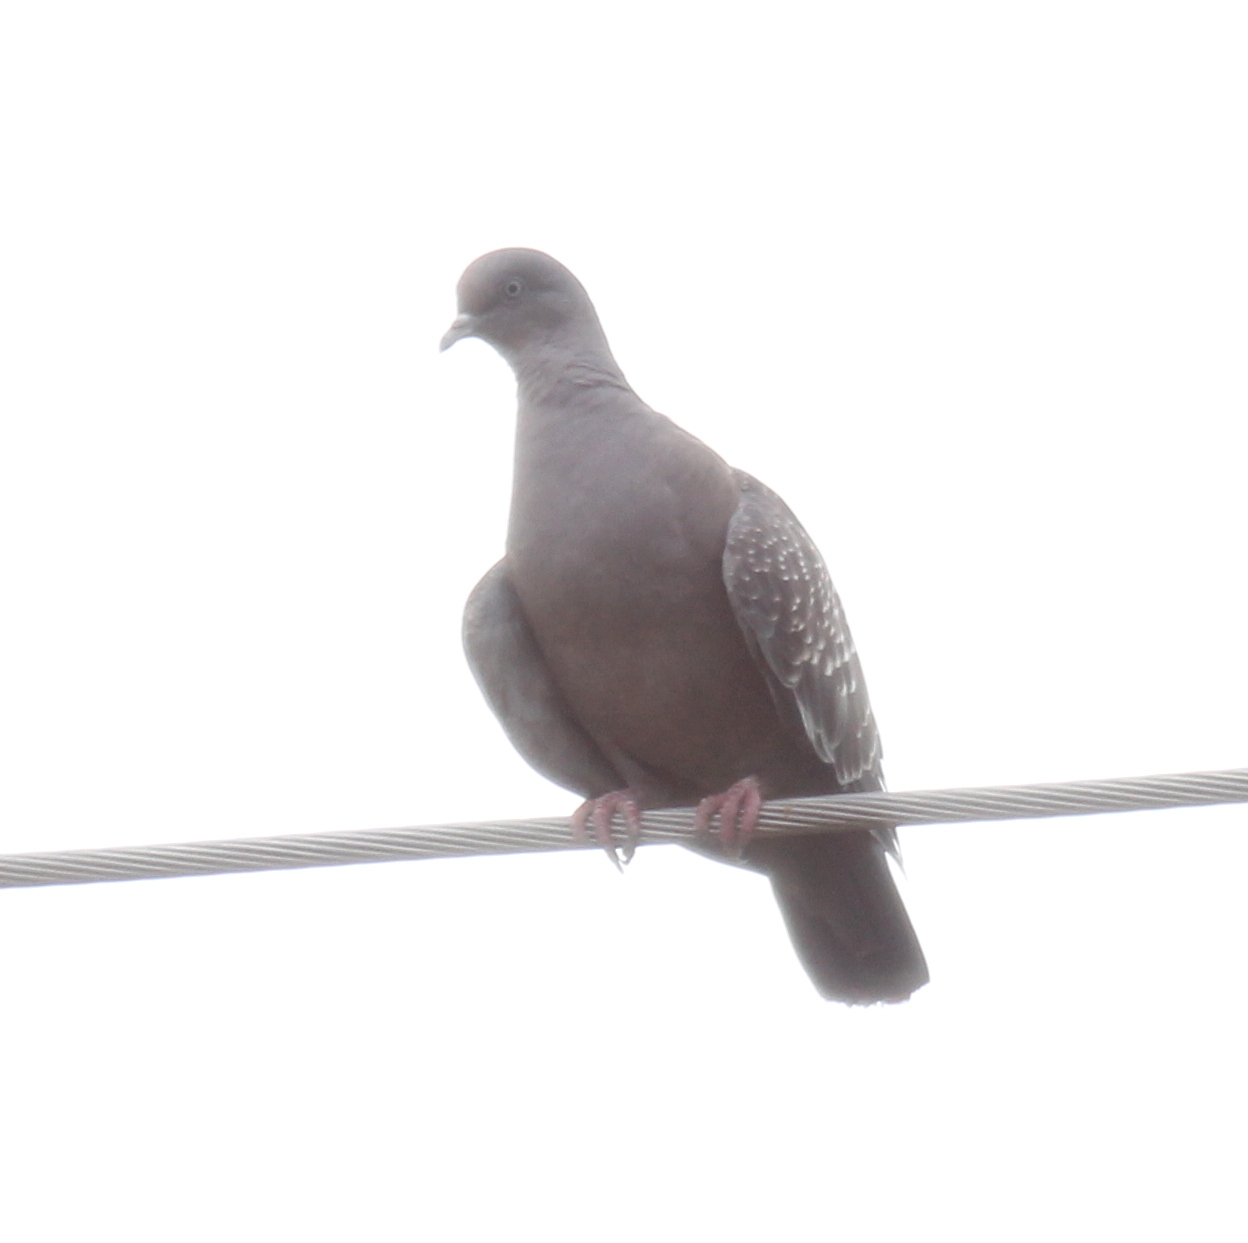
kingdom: Animalia
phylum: Chordata
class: Aves
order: Columbiformes
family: Columbidae
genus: Patagioenas
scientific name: Patagioenas maculosa
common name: Spot-winged pigeon
